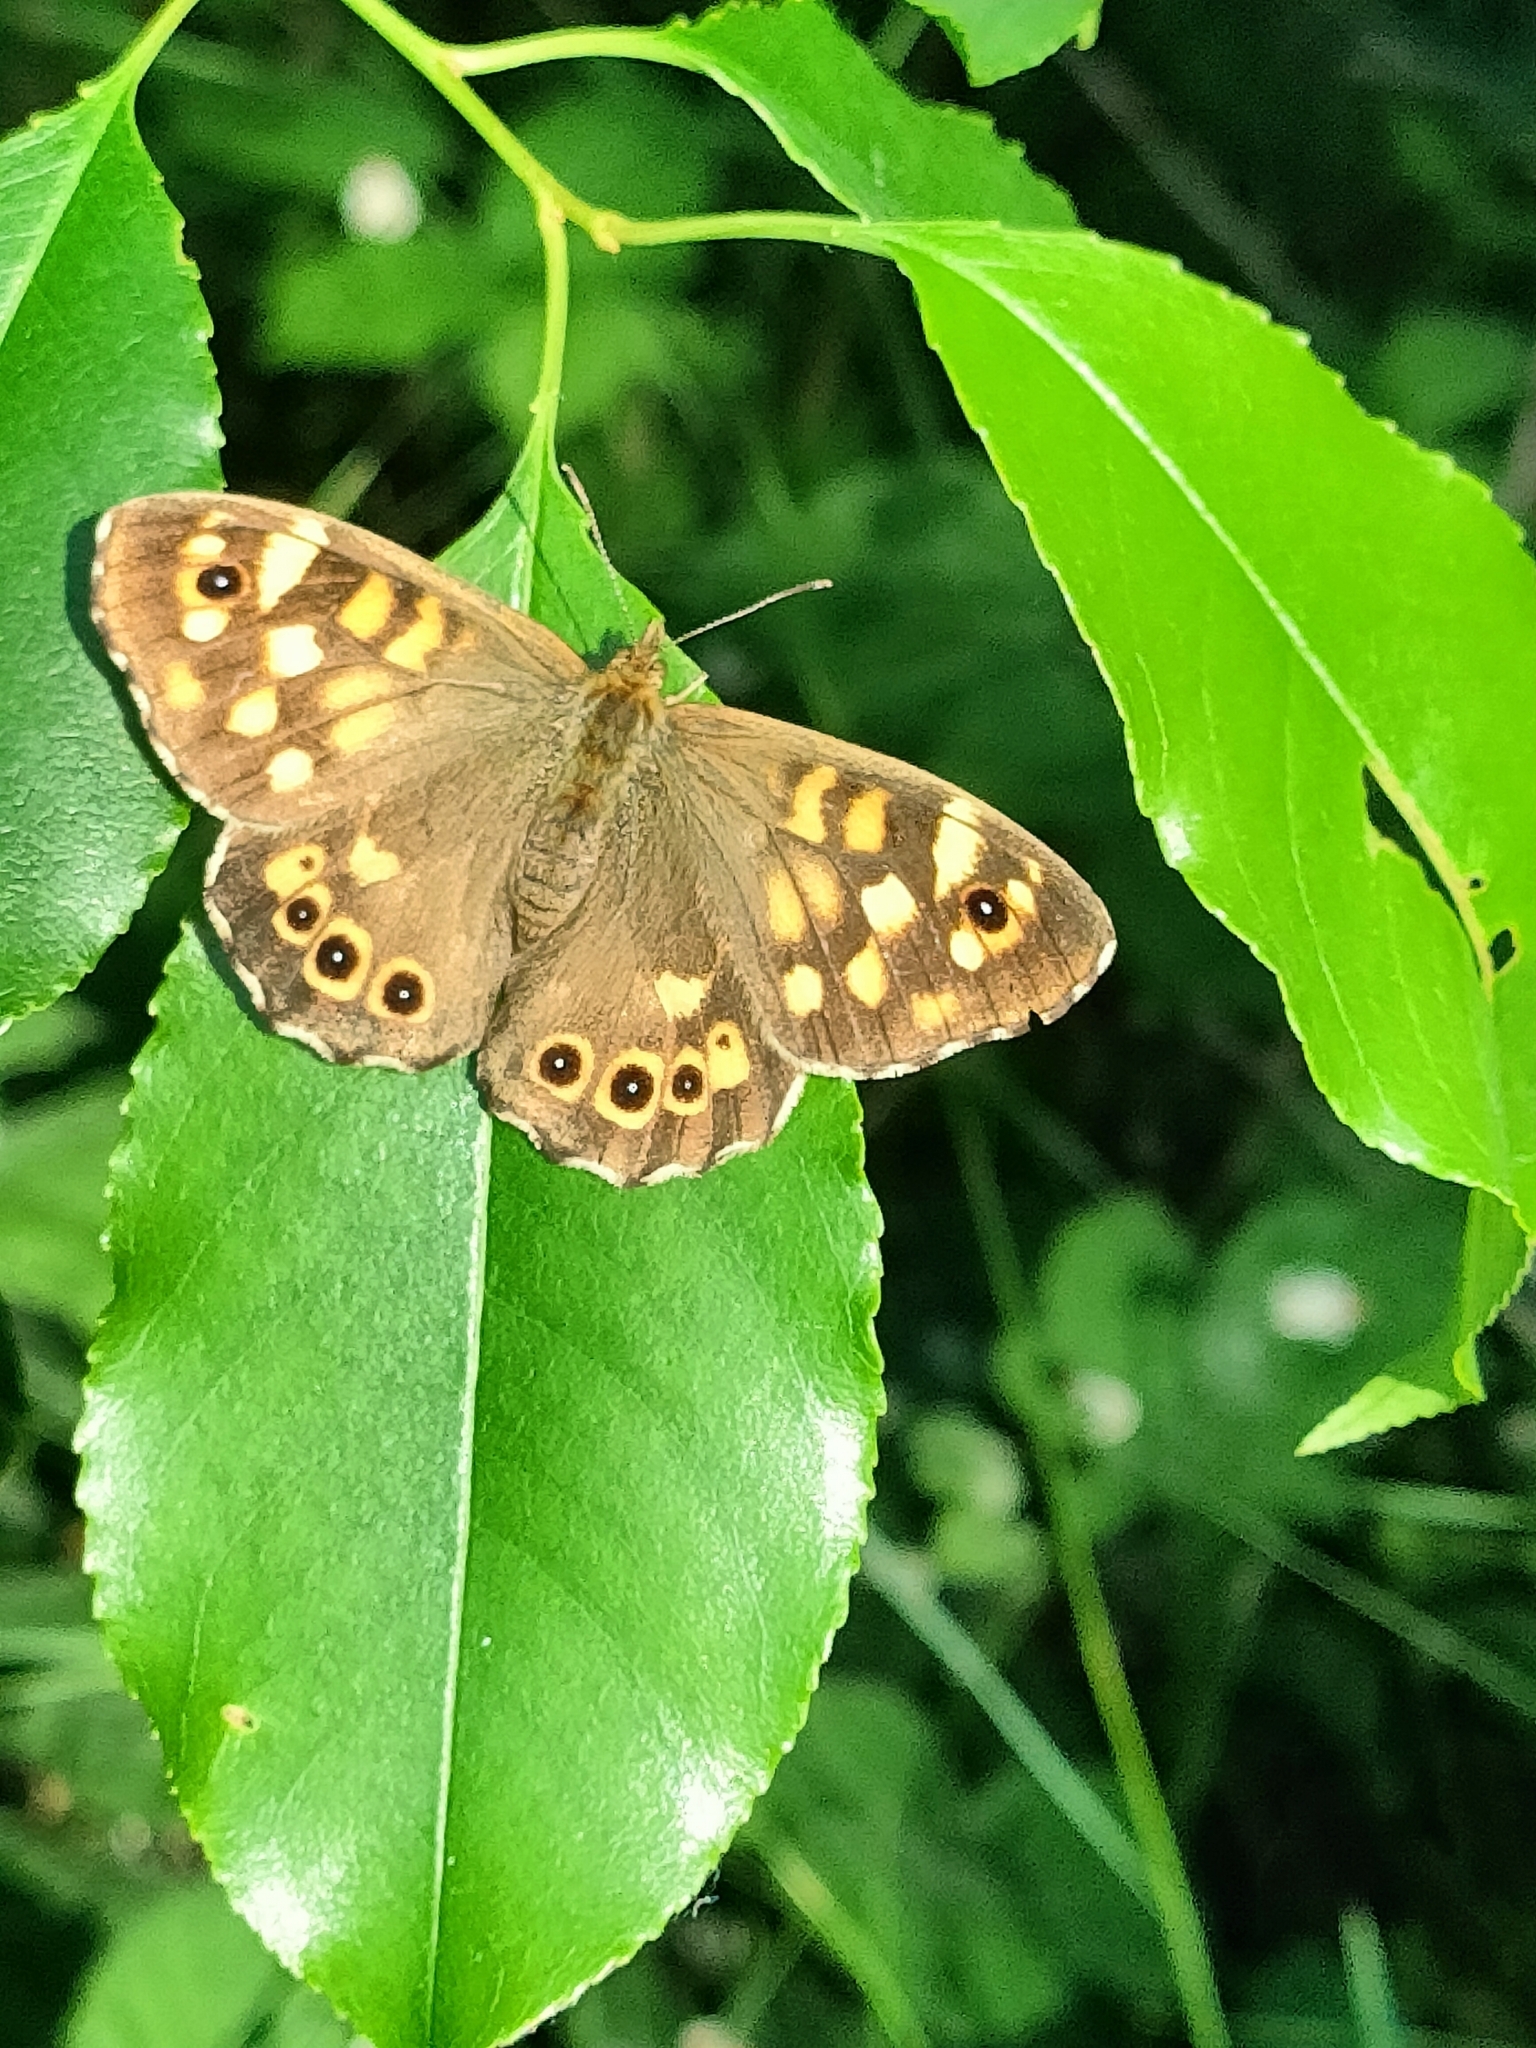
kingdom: Animalia
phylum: Arthropoda
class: Insecta
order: Lepidoptera
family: Nymphalidae
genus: Pararge
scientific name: Pararge aegeria
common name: Speckled wood
